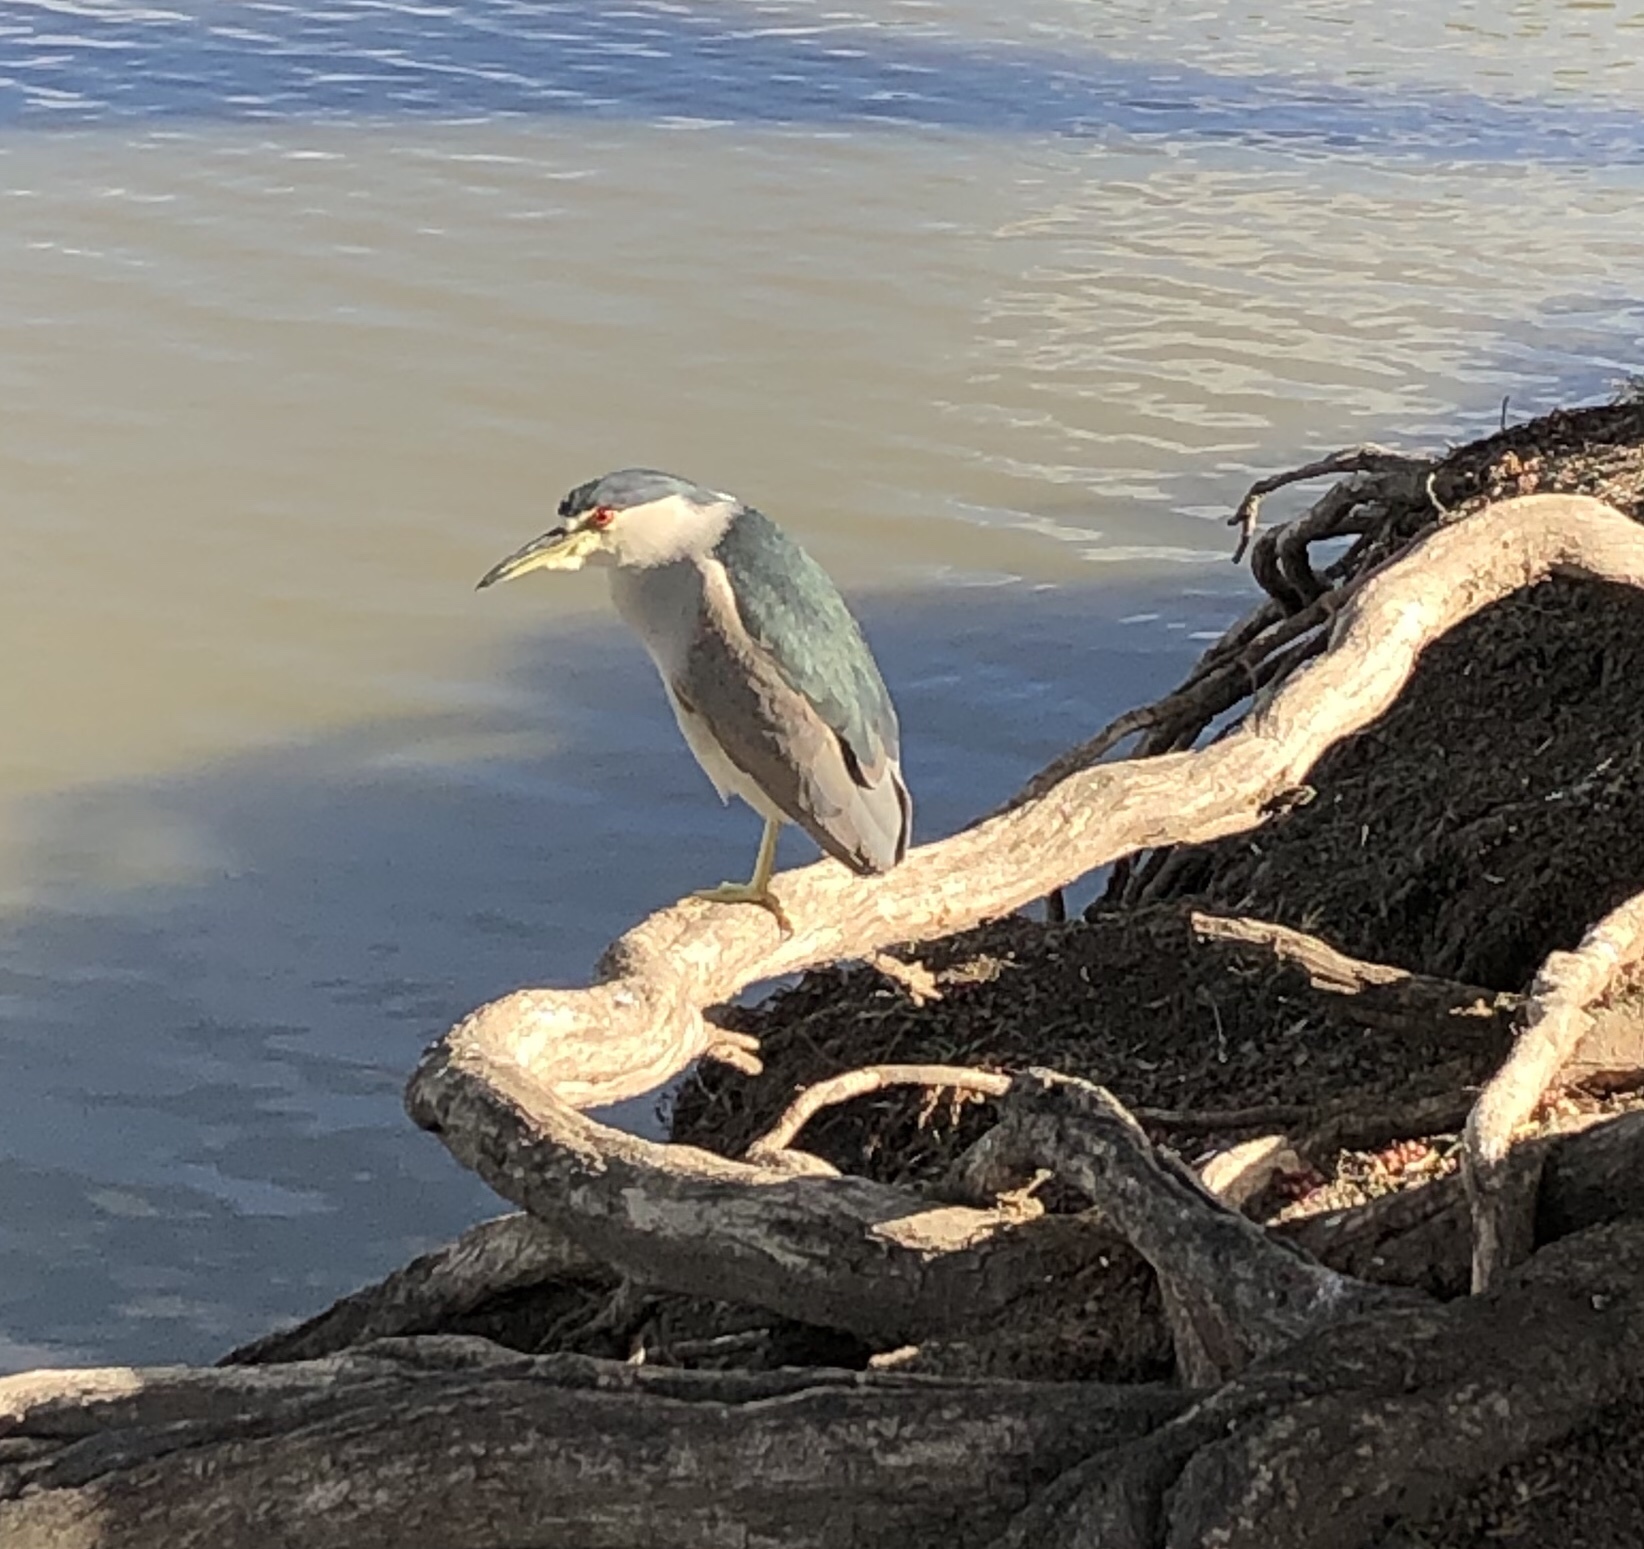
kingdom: Animalia
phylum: Chordata
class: Aves
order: Pelecaniformes
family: Ardeidae
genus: Nycticorax
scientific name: Nycticorax nycticorax
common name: Black-crowned night heron
